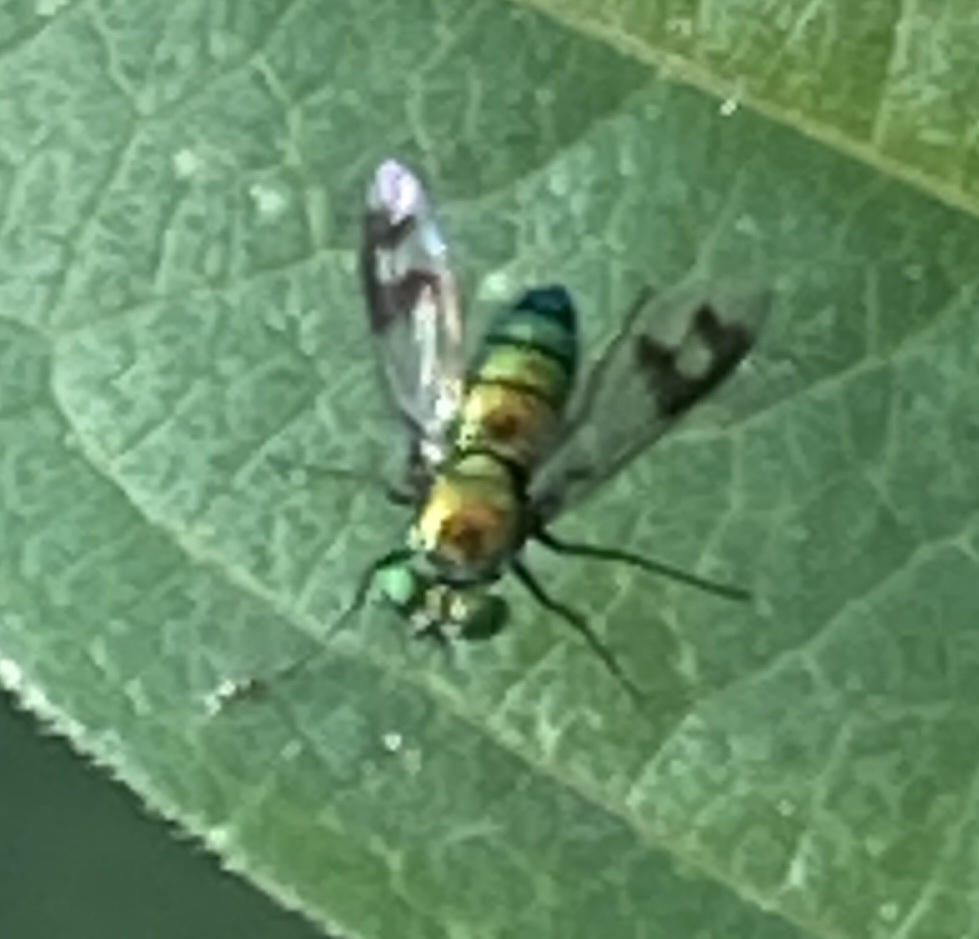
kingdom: Animalia
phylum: Arthropoda
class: Insecta
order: Diptera
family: Dolichopodidae
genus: Condylostylus
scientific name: Condylostylus occidentalis
